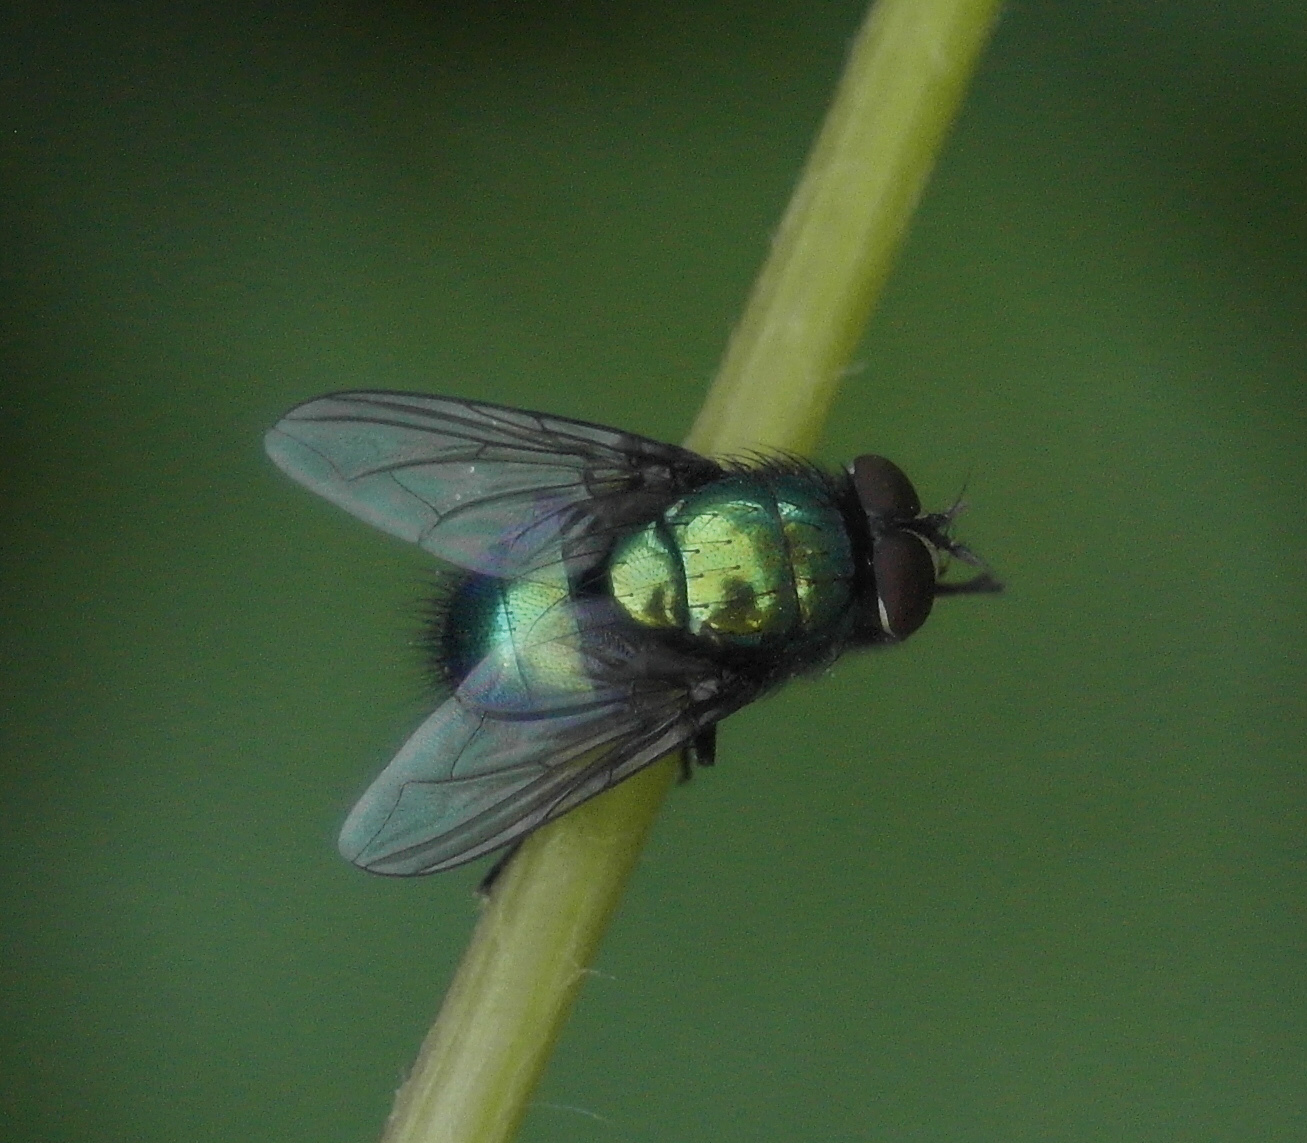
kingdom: Animalia
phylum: Arthropoda
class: Insecta
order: Diptera
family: Calliphoridae
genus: Lucilia
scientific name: Lucilia sericata
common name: Blow fly
